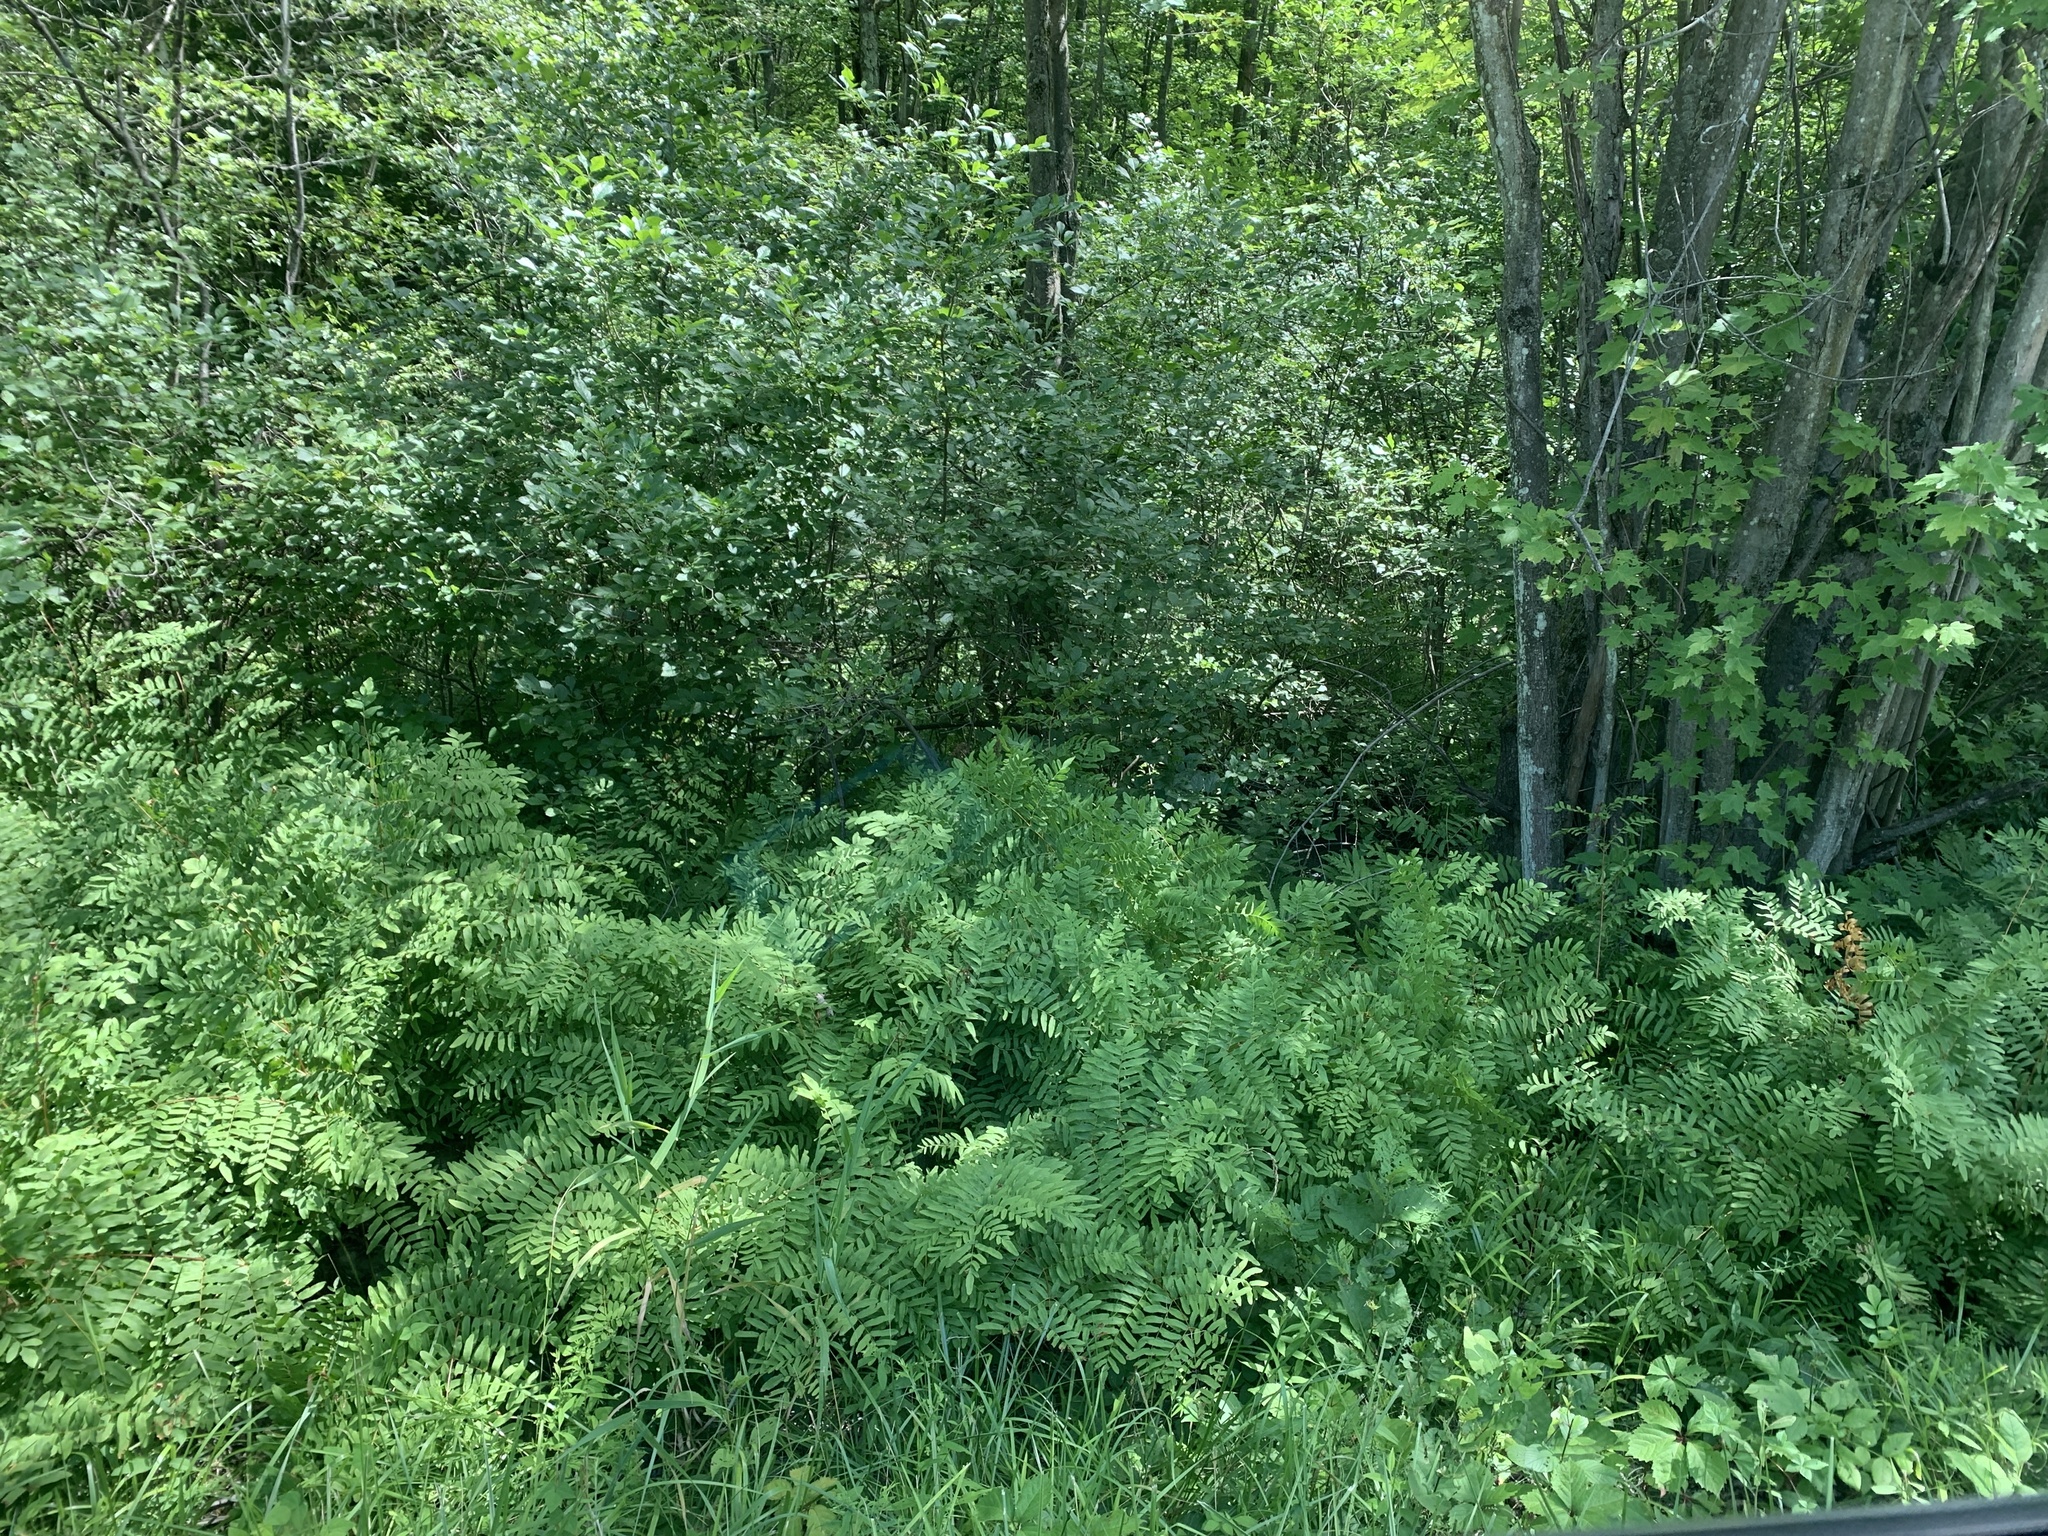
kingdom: Plantae
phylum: Tracheophyta
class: Polypodiopsida
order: Osmundales
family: Osmundaceae
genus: Osmunda
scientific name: Osmunda spectabilis
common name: American royal fern
